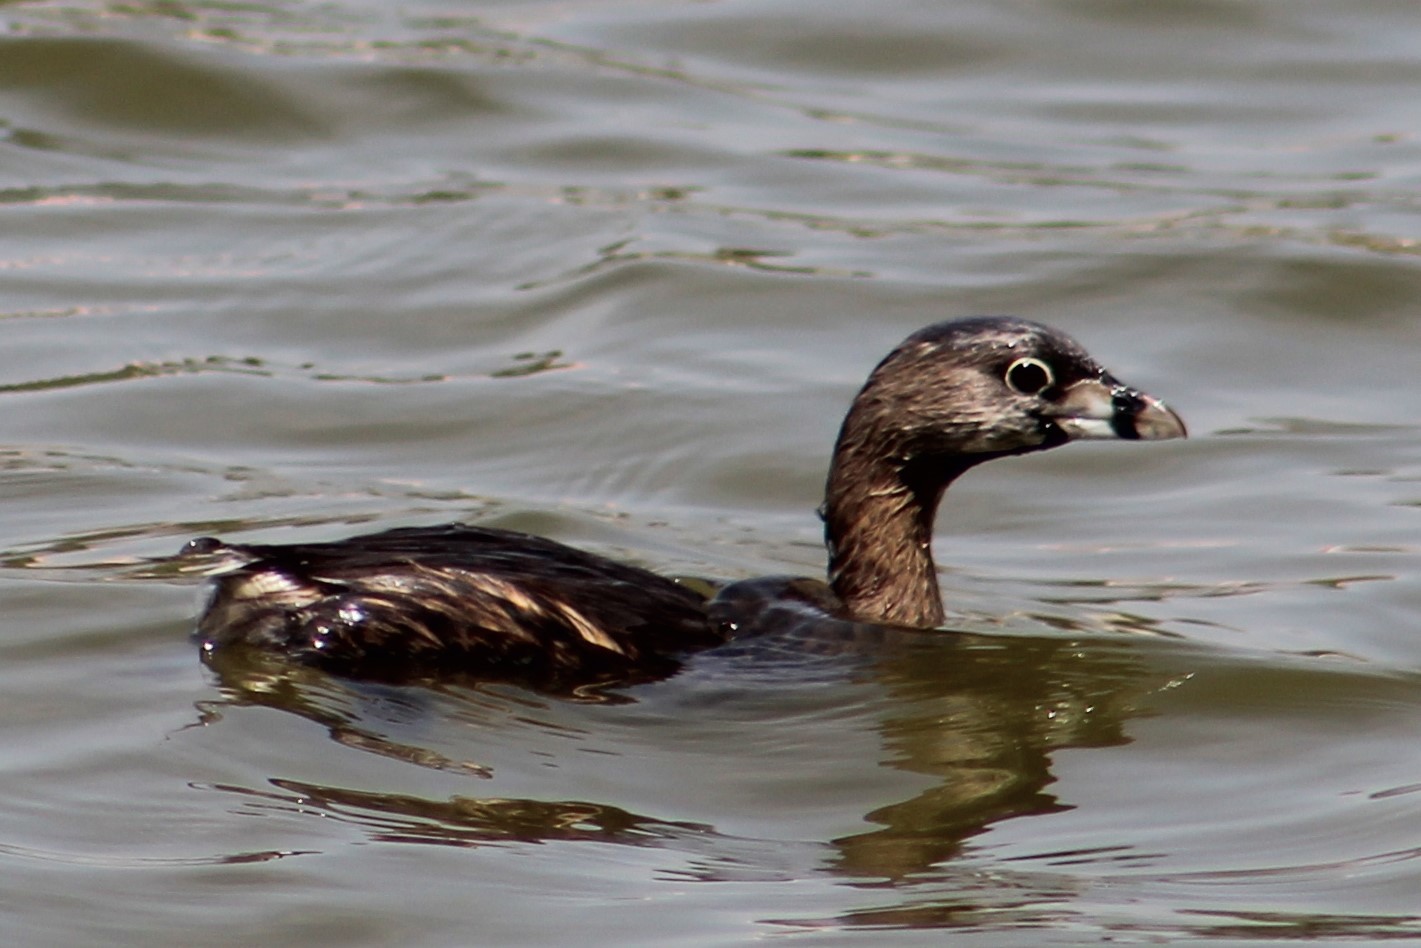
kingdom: Animalia
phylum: Chordata
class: Aves
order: Podicipediformes
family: Podicipedidae
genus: Podilymbus
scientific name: Podilymbus podiceps
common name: Pied-billed grebe
